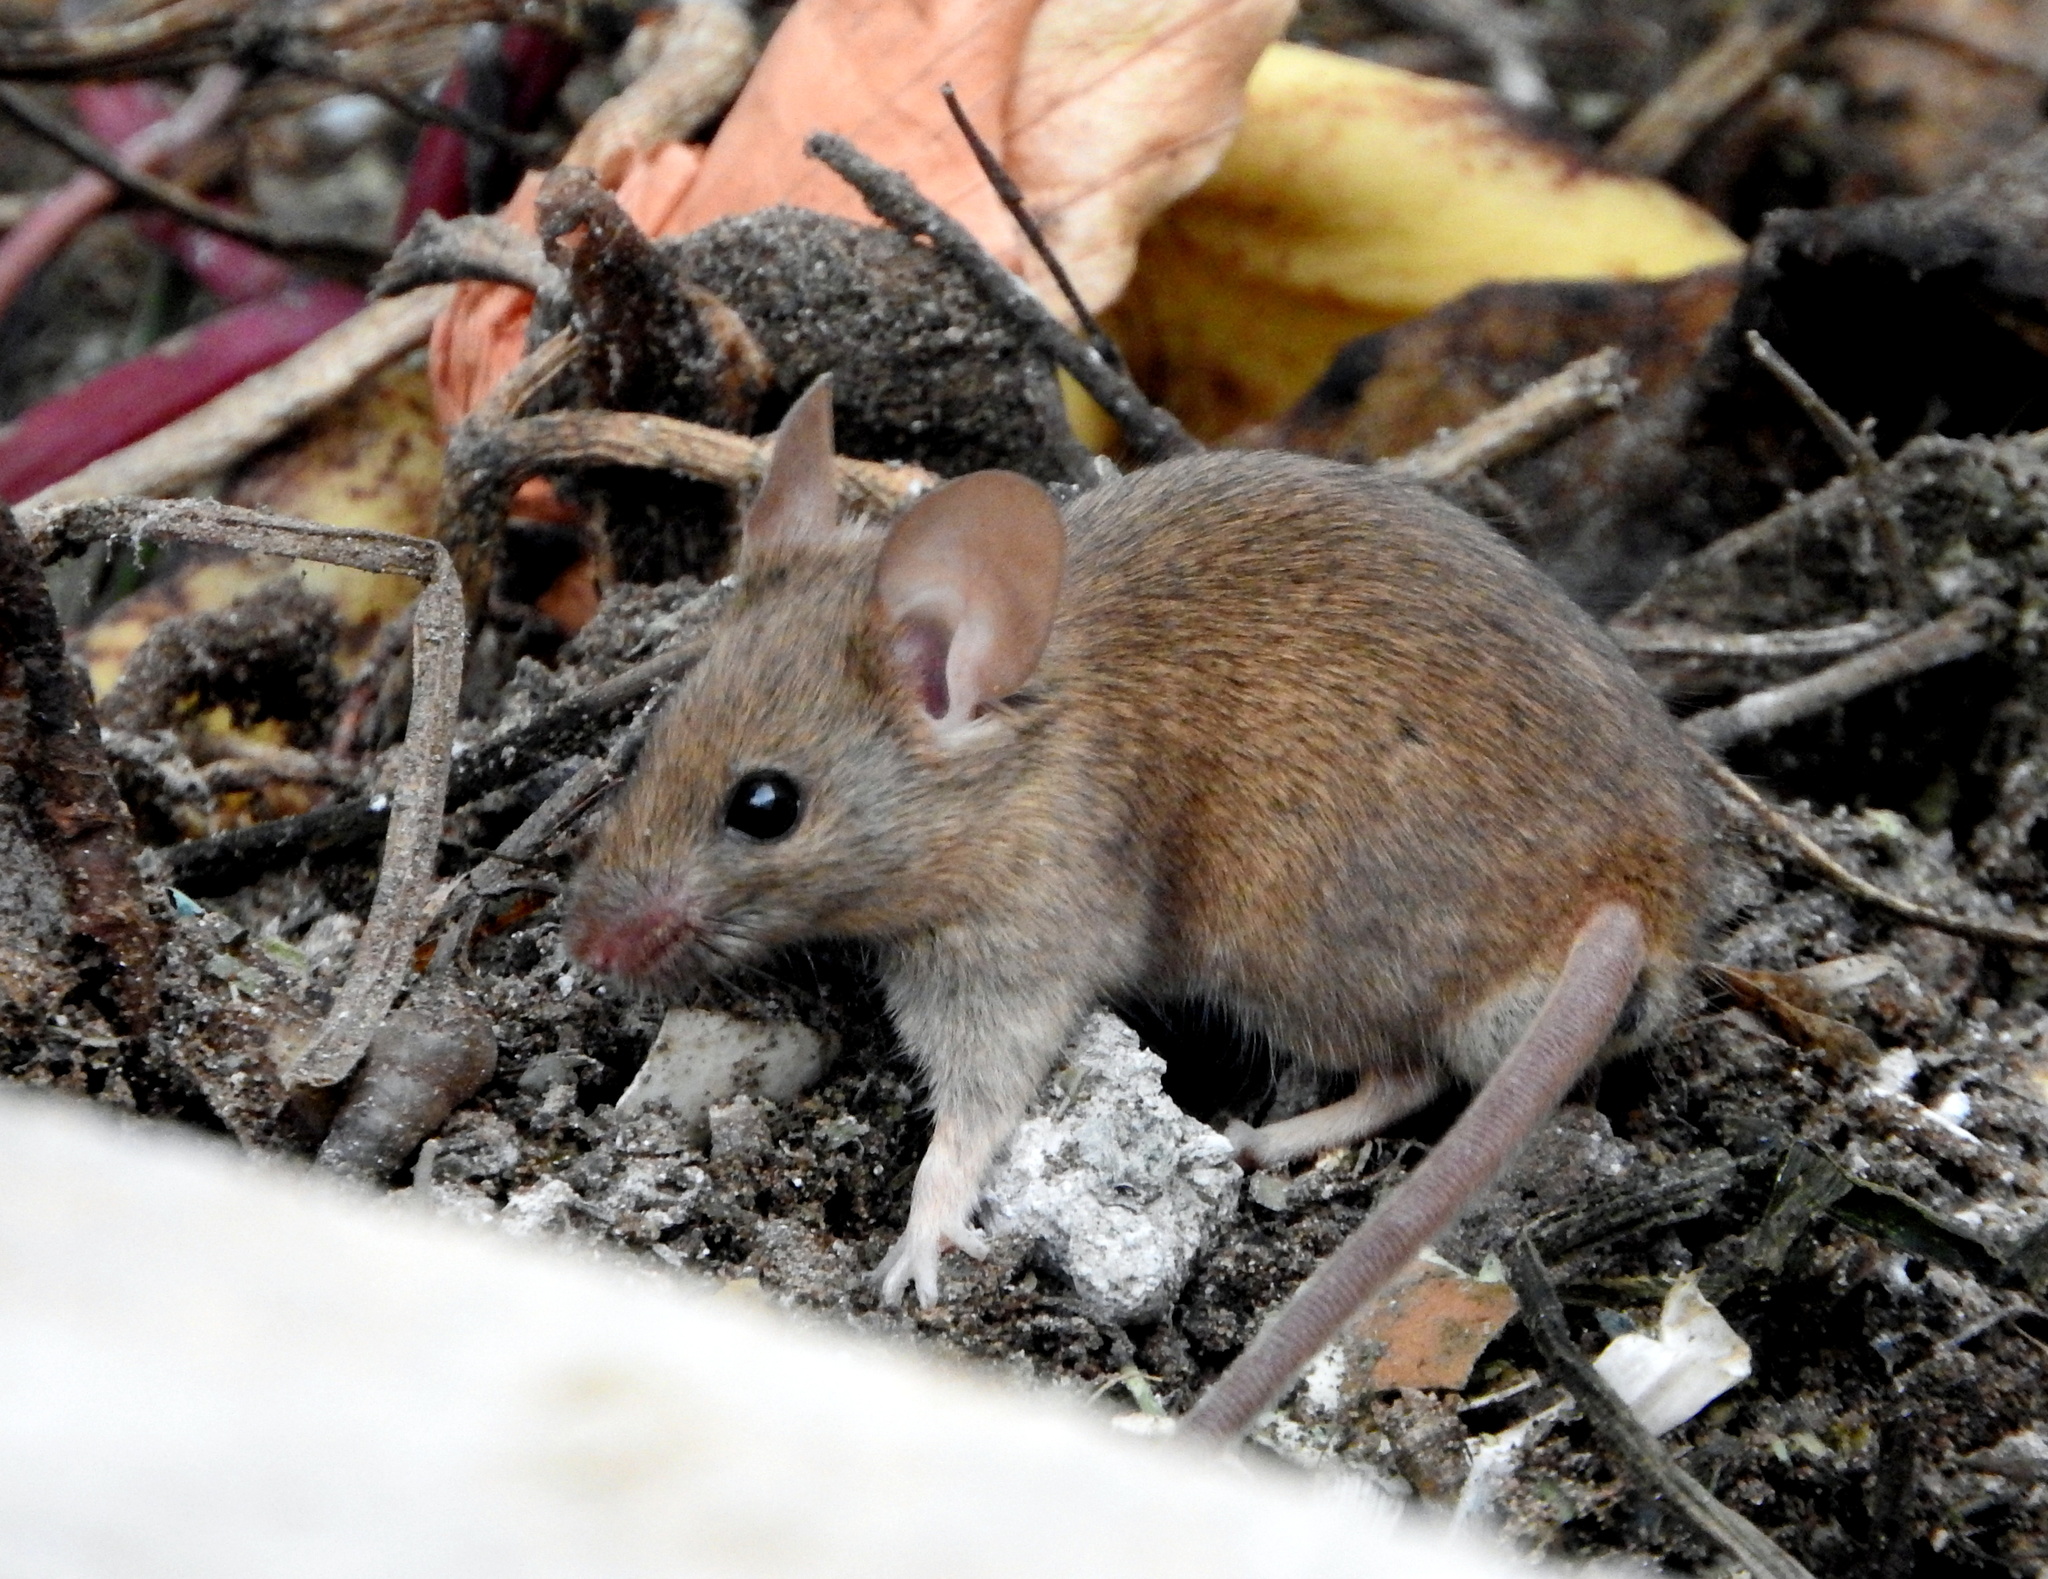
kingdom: Animalia
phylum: Chordata
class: Mammalia
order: Rodentia
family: Muridae
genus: Mus
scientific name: Mus musculus
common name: House mouse
